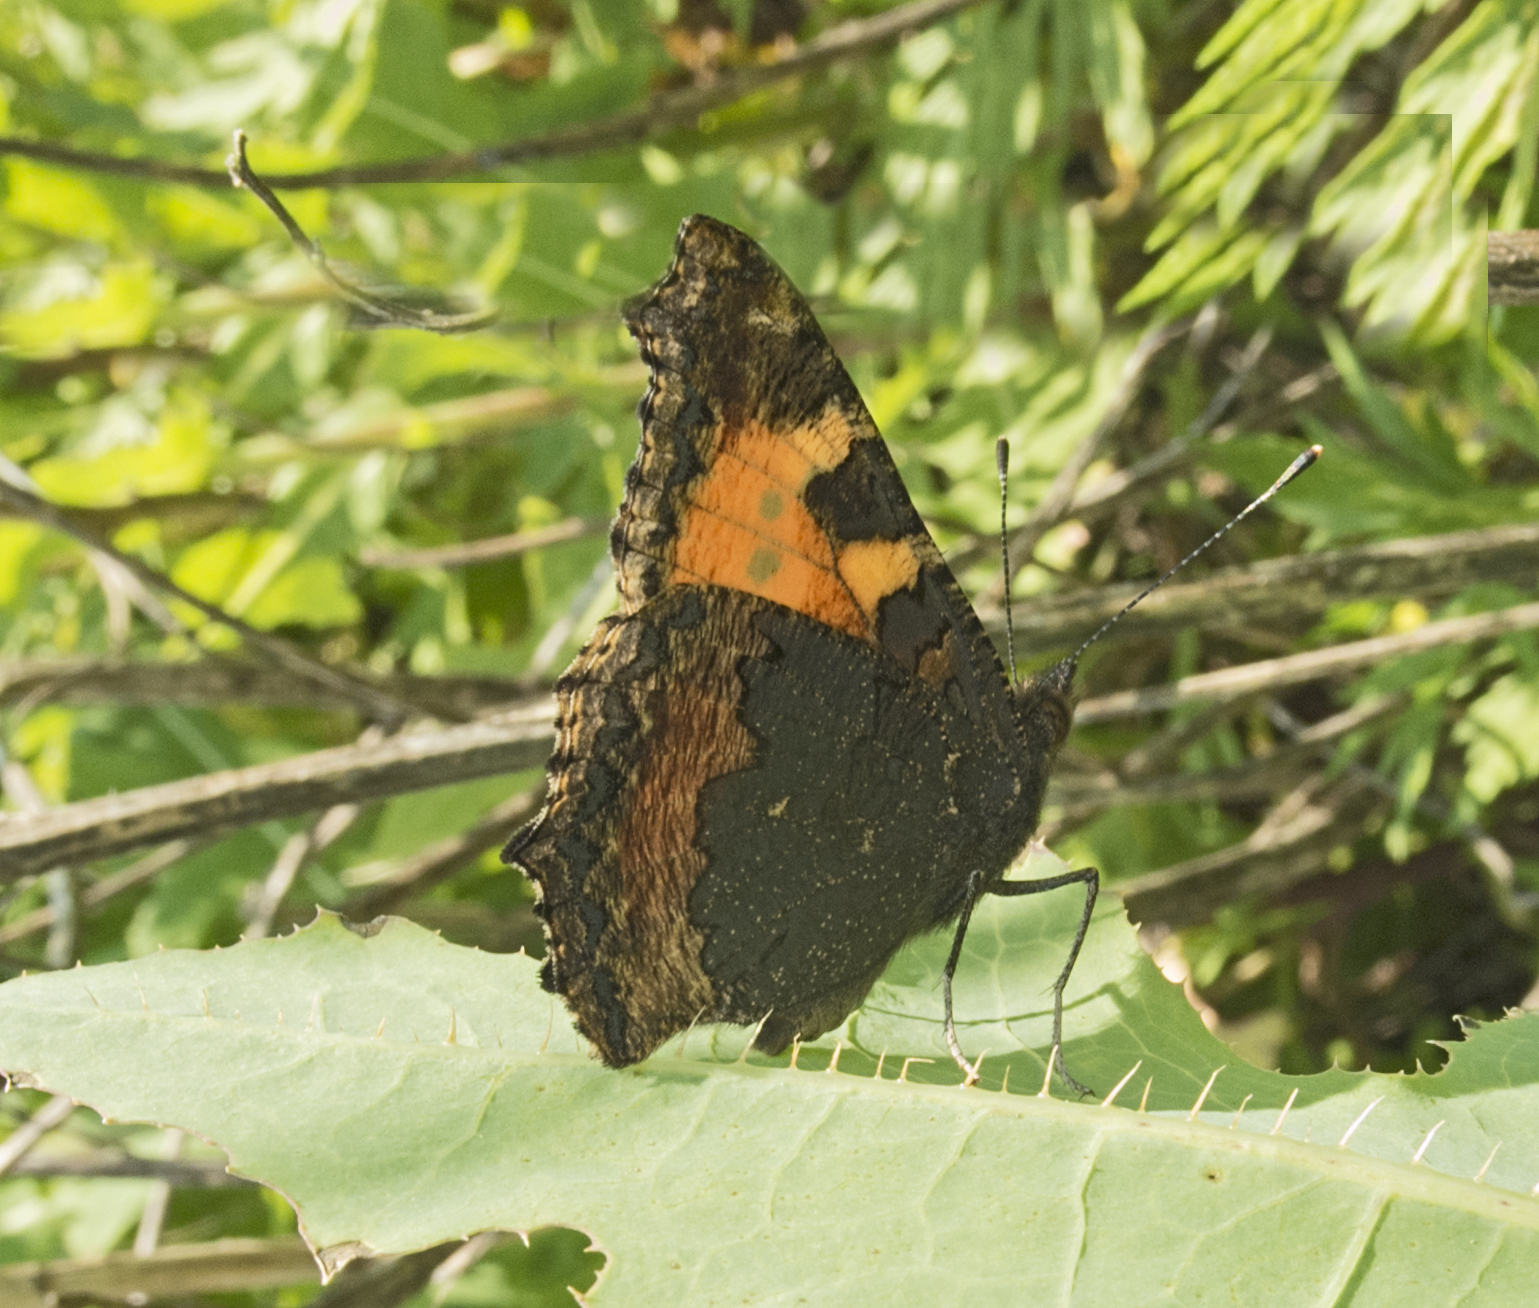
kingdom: Animalia
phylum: Arthropoda
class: Insecta
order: Lepidoptera
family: Nymphalidae
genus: Aglais
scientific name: Aglais urticae
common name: Small tortoiseshell
